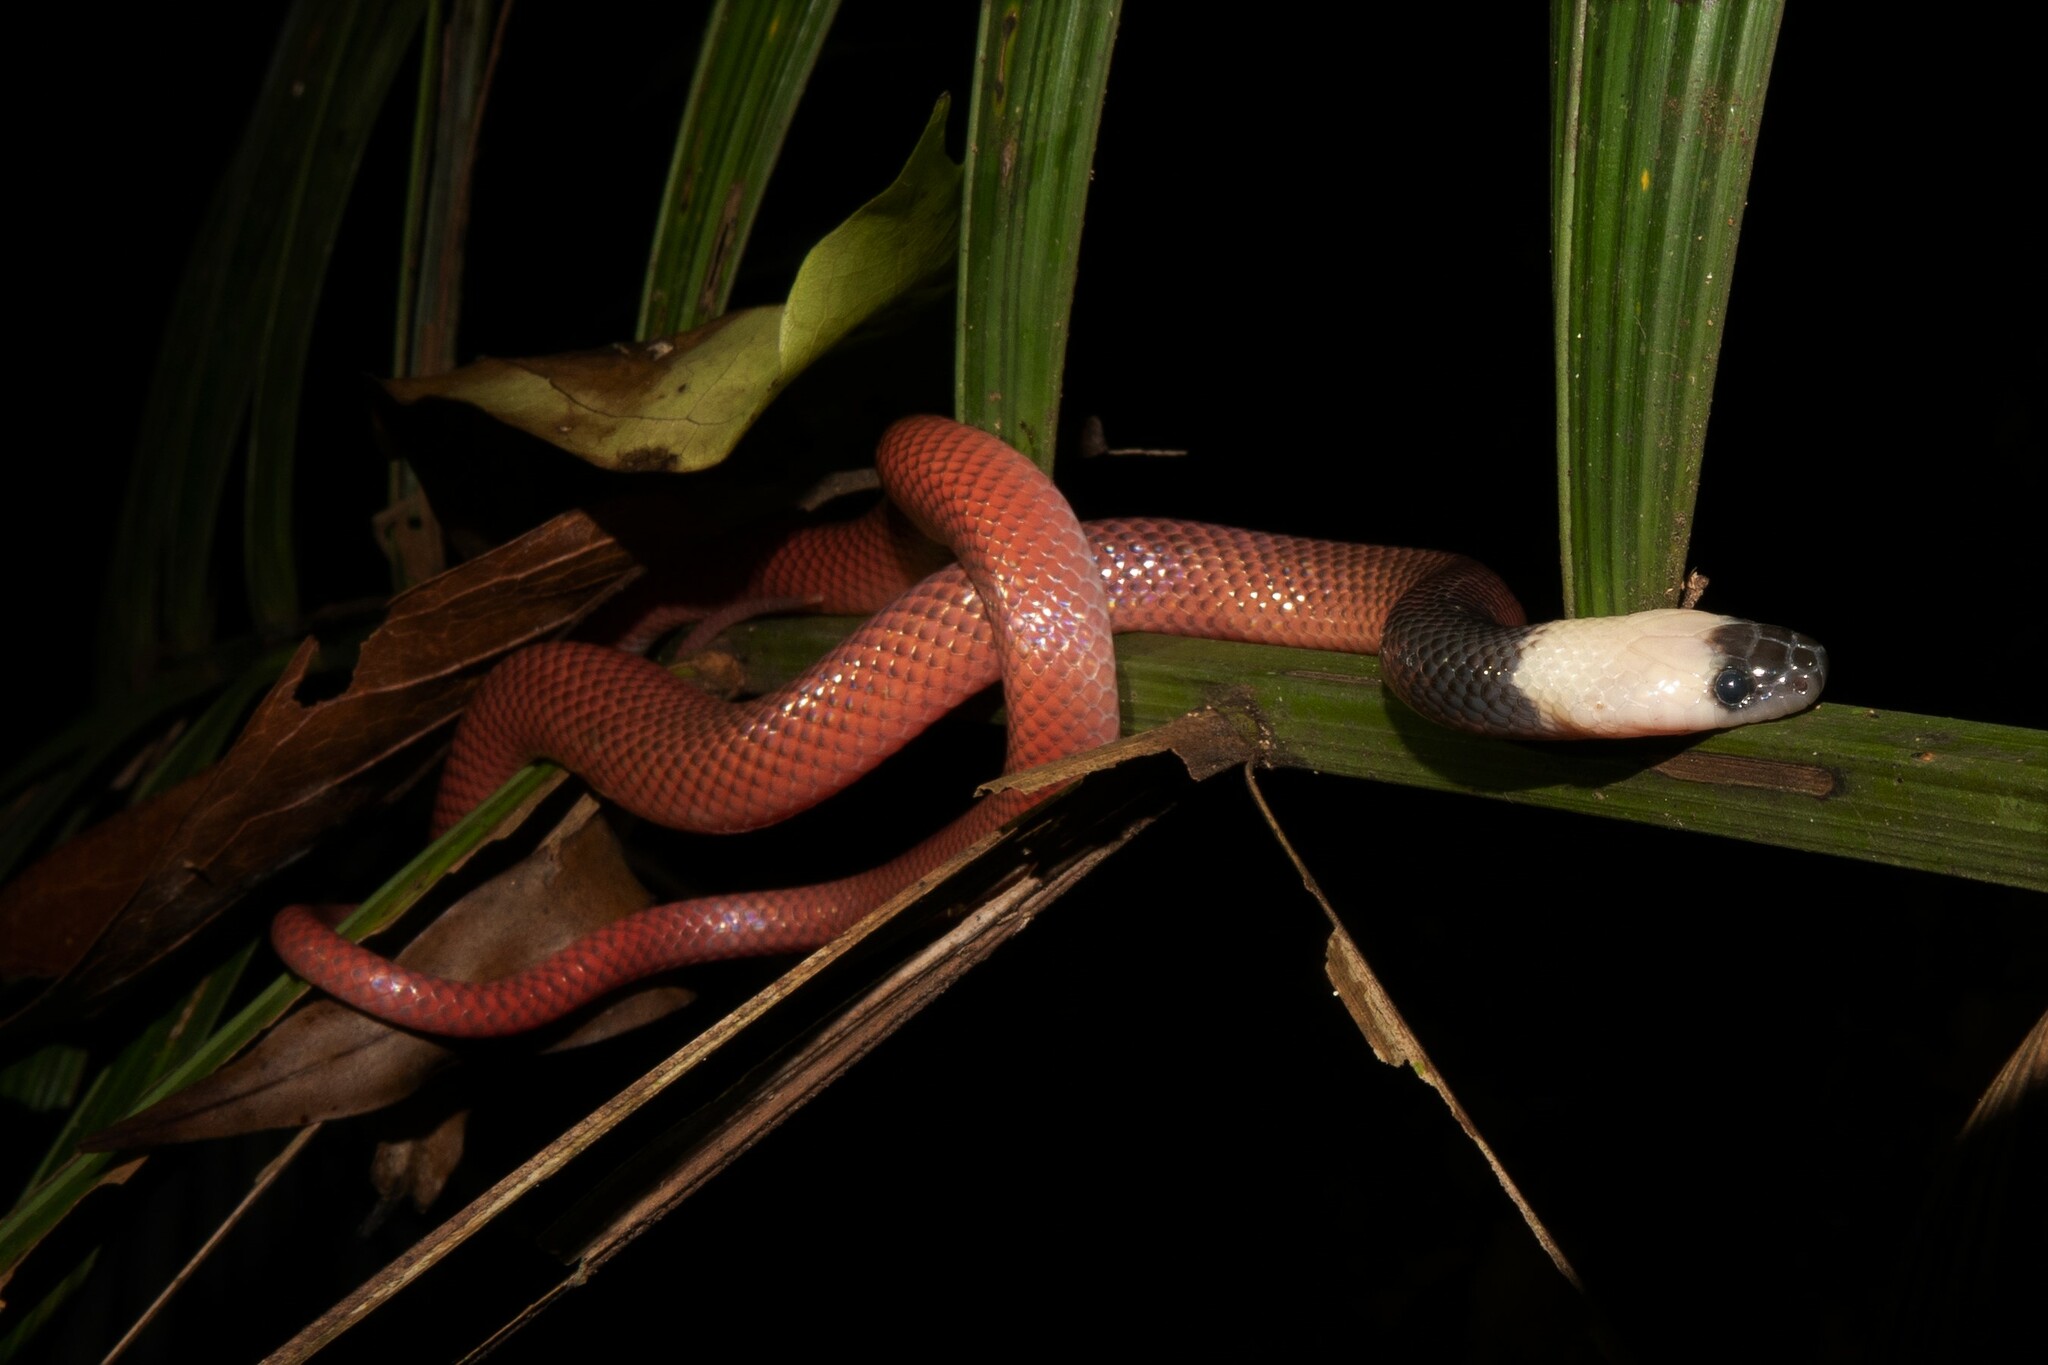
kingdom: Animalia
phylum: Chordata
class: Squamata
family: Colubridae
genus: Pseudoboa
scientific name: Pseudoboa coronata
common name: Crowned false boa
